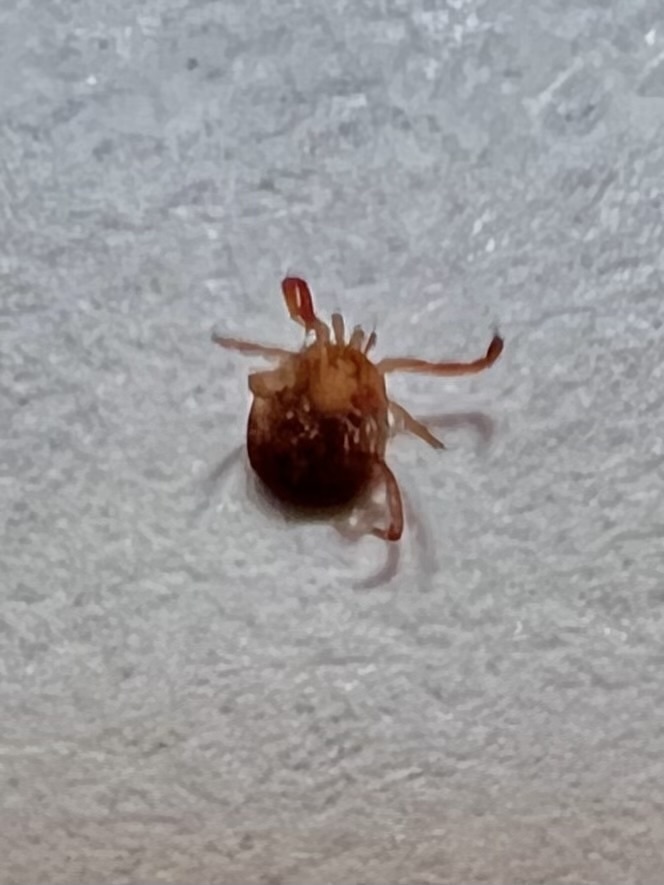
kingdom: Animalia
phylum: Arthropoda
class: Arachnida
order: Ixodida
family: Ixodidae
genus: Amblyomma
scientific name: Amblyomma americanum
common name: Lone star tick
